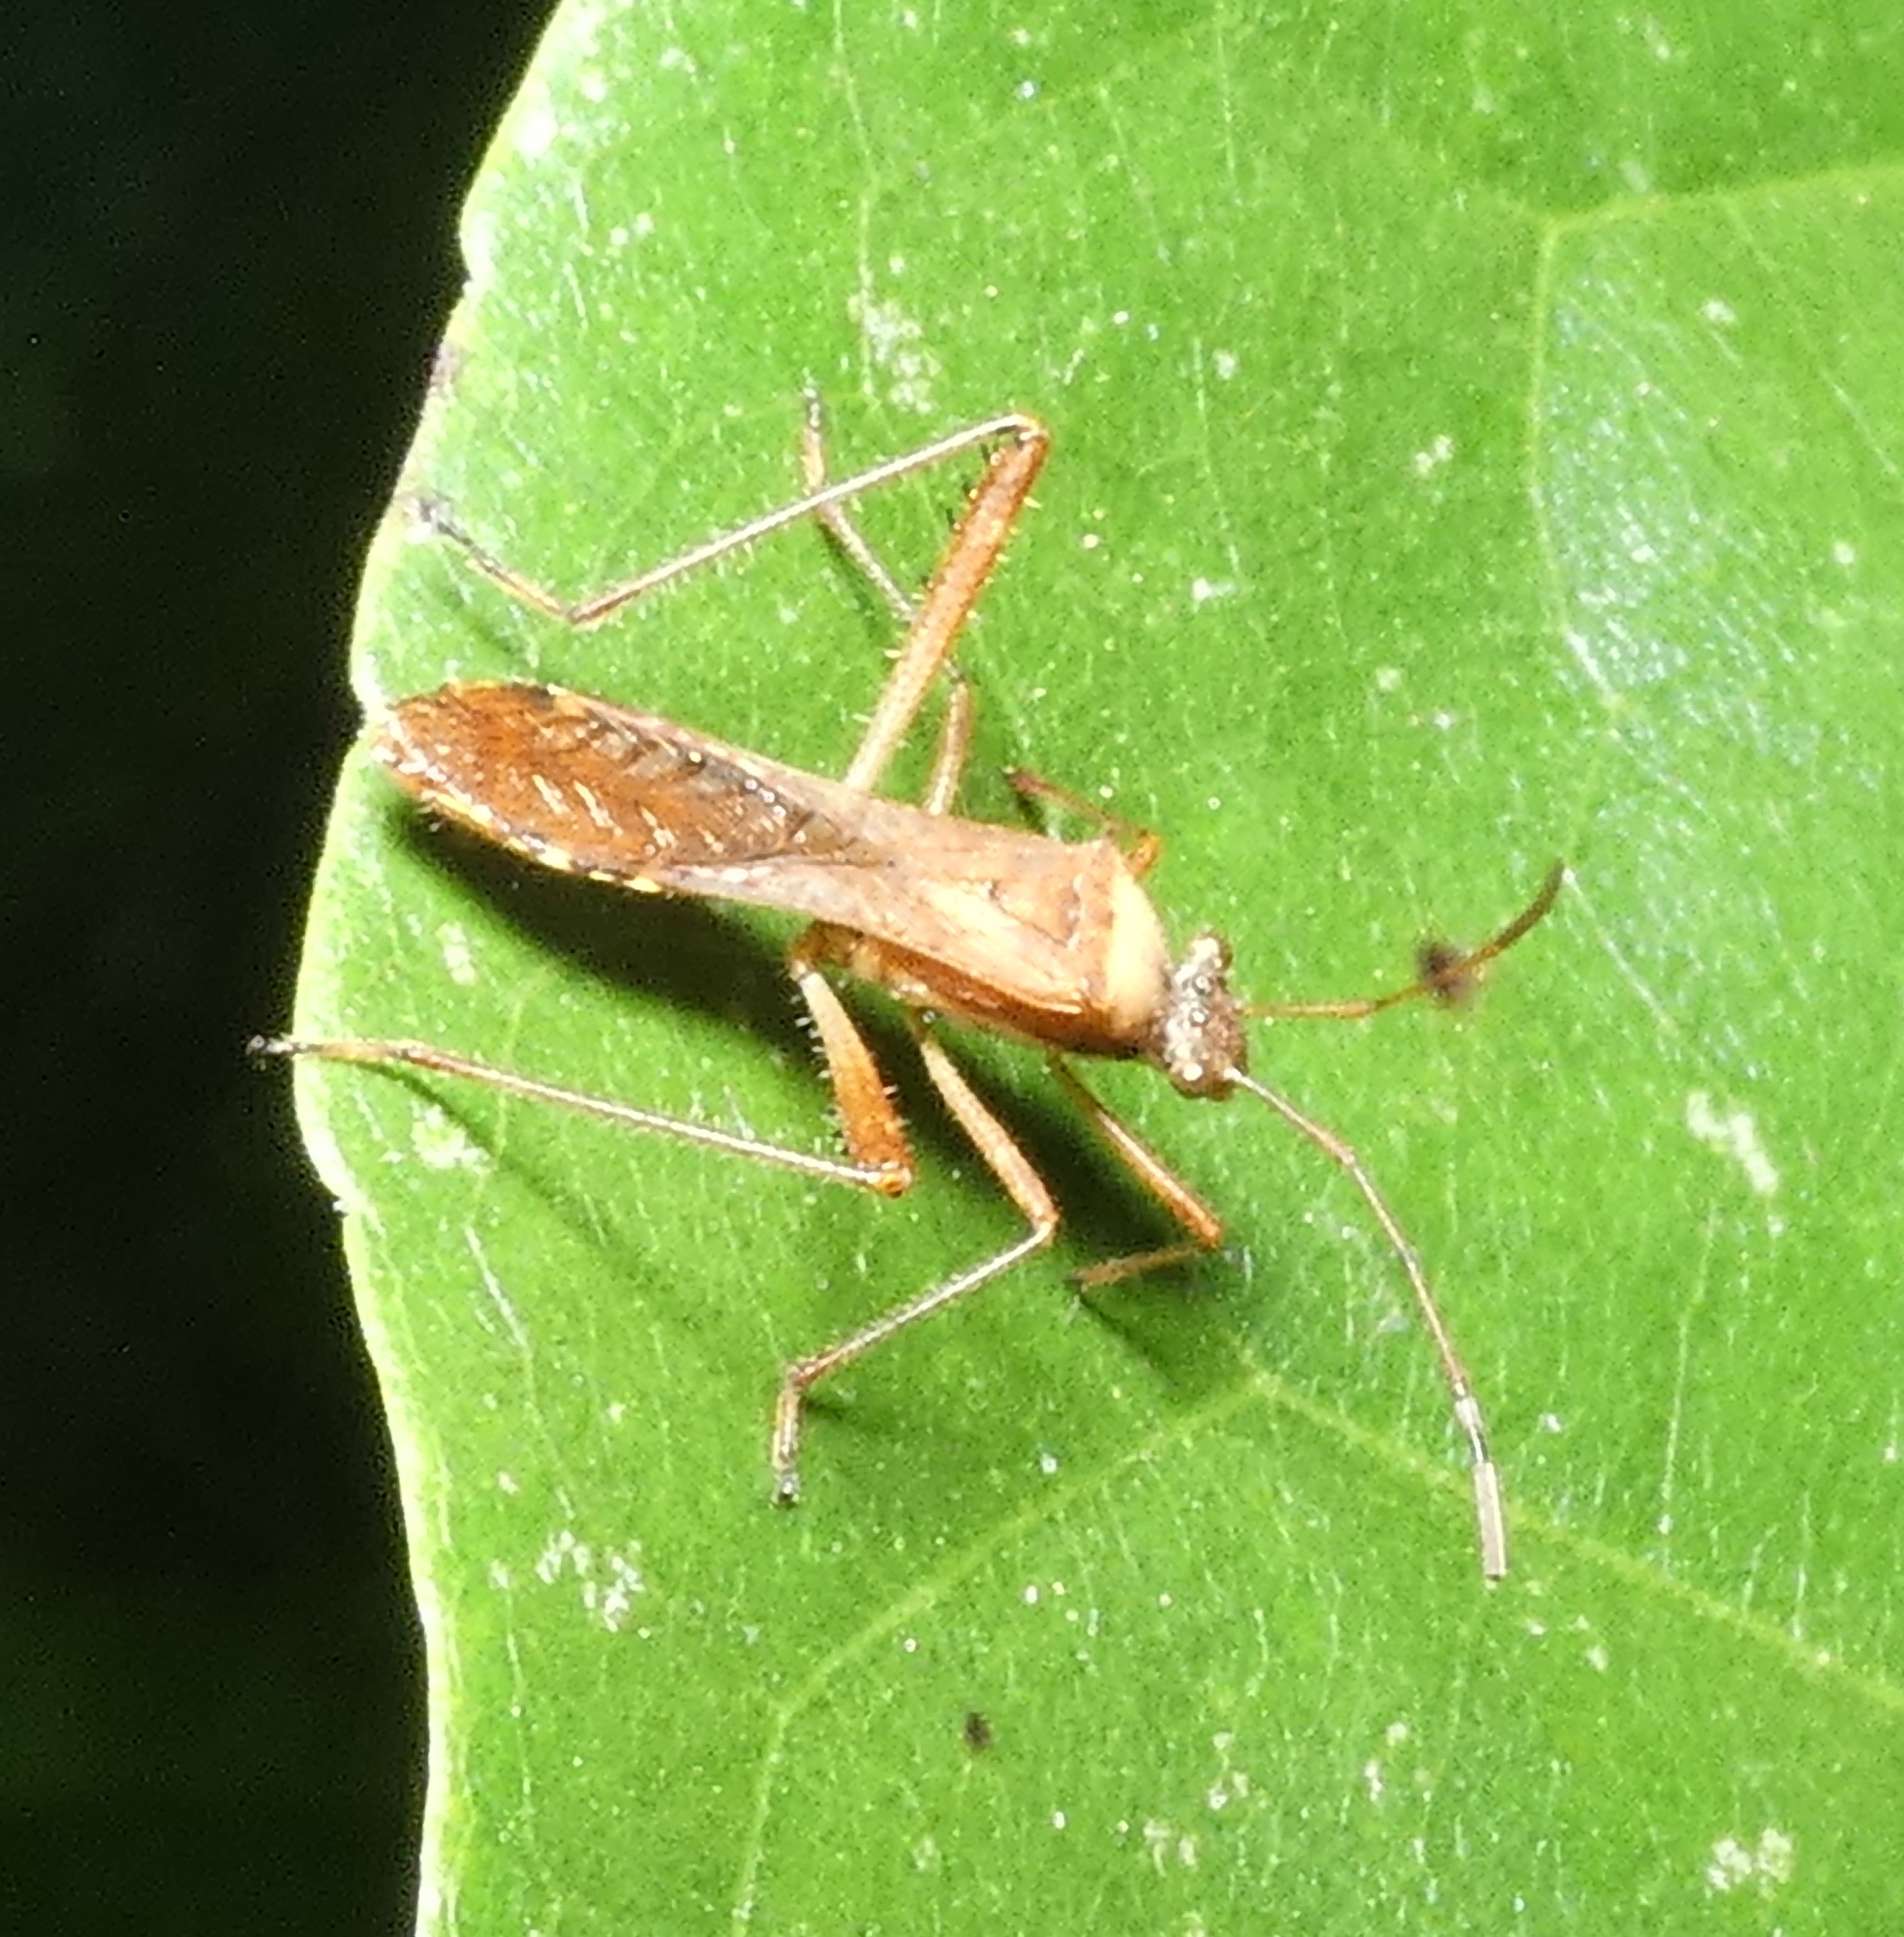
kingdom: Animalia
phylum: Arthropoda
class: Insecta
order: Hemiptera
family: Alydidae
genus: Neomegalotomus
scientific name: Neomegalotomus parvus
